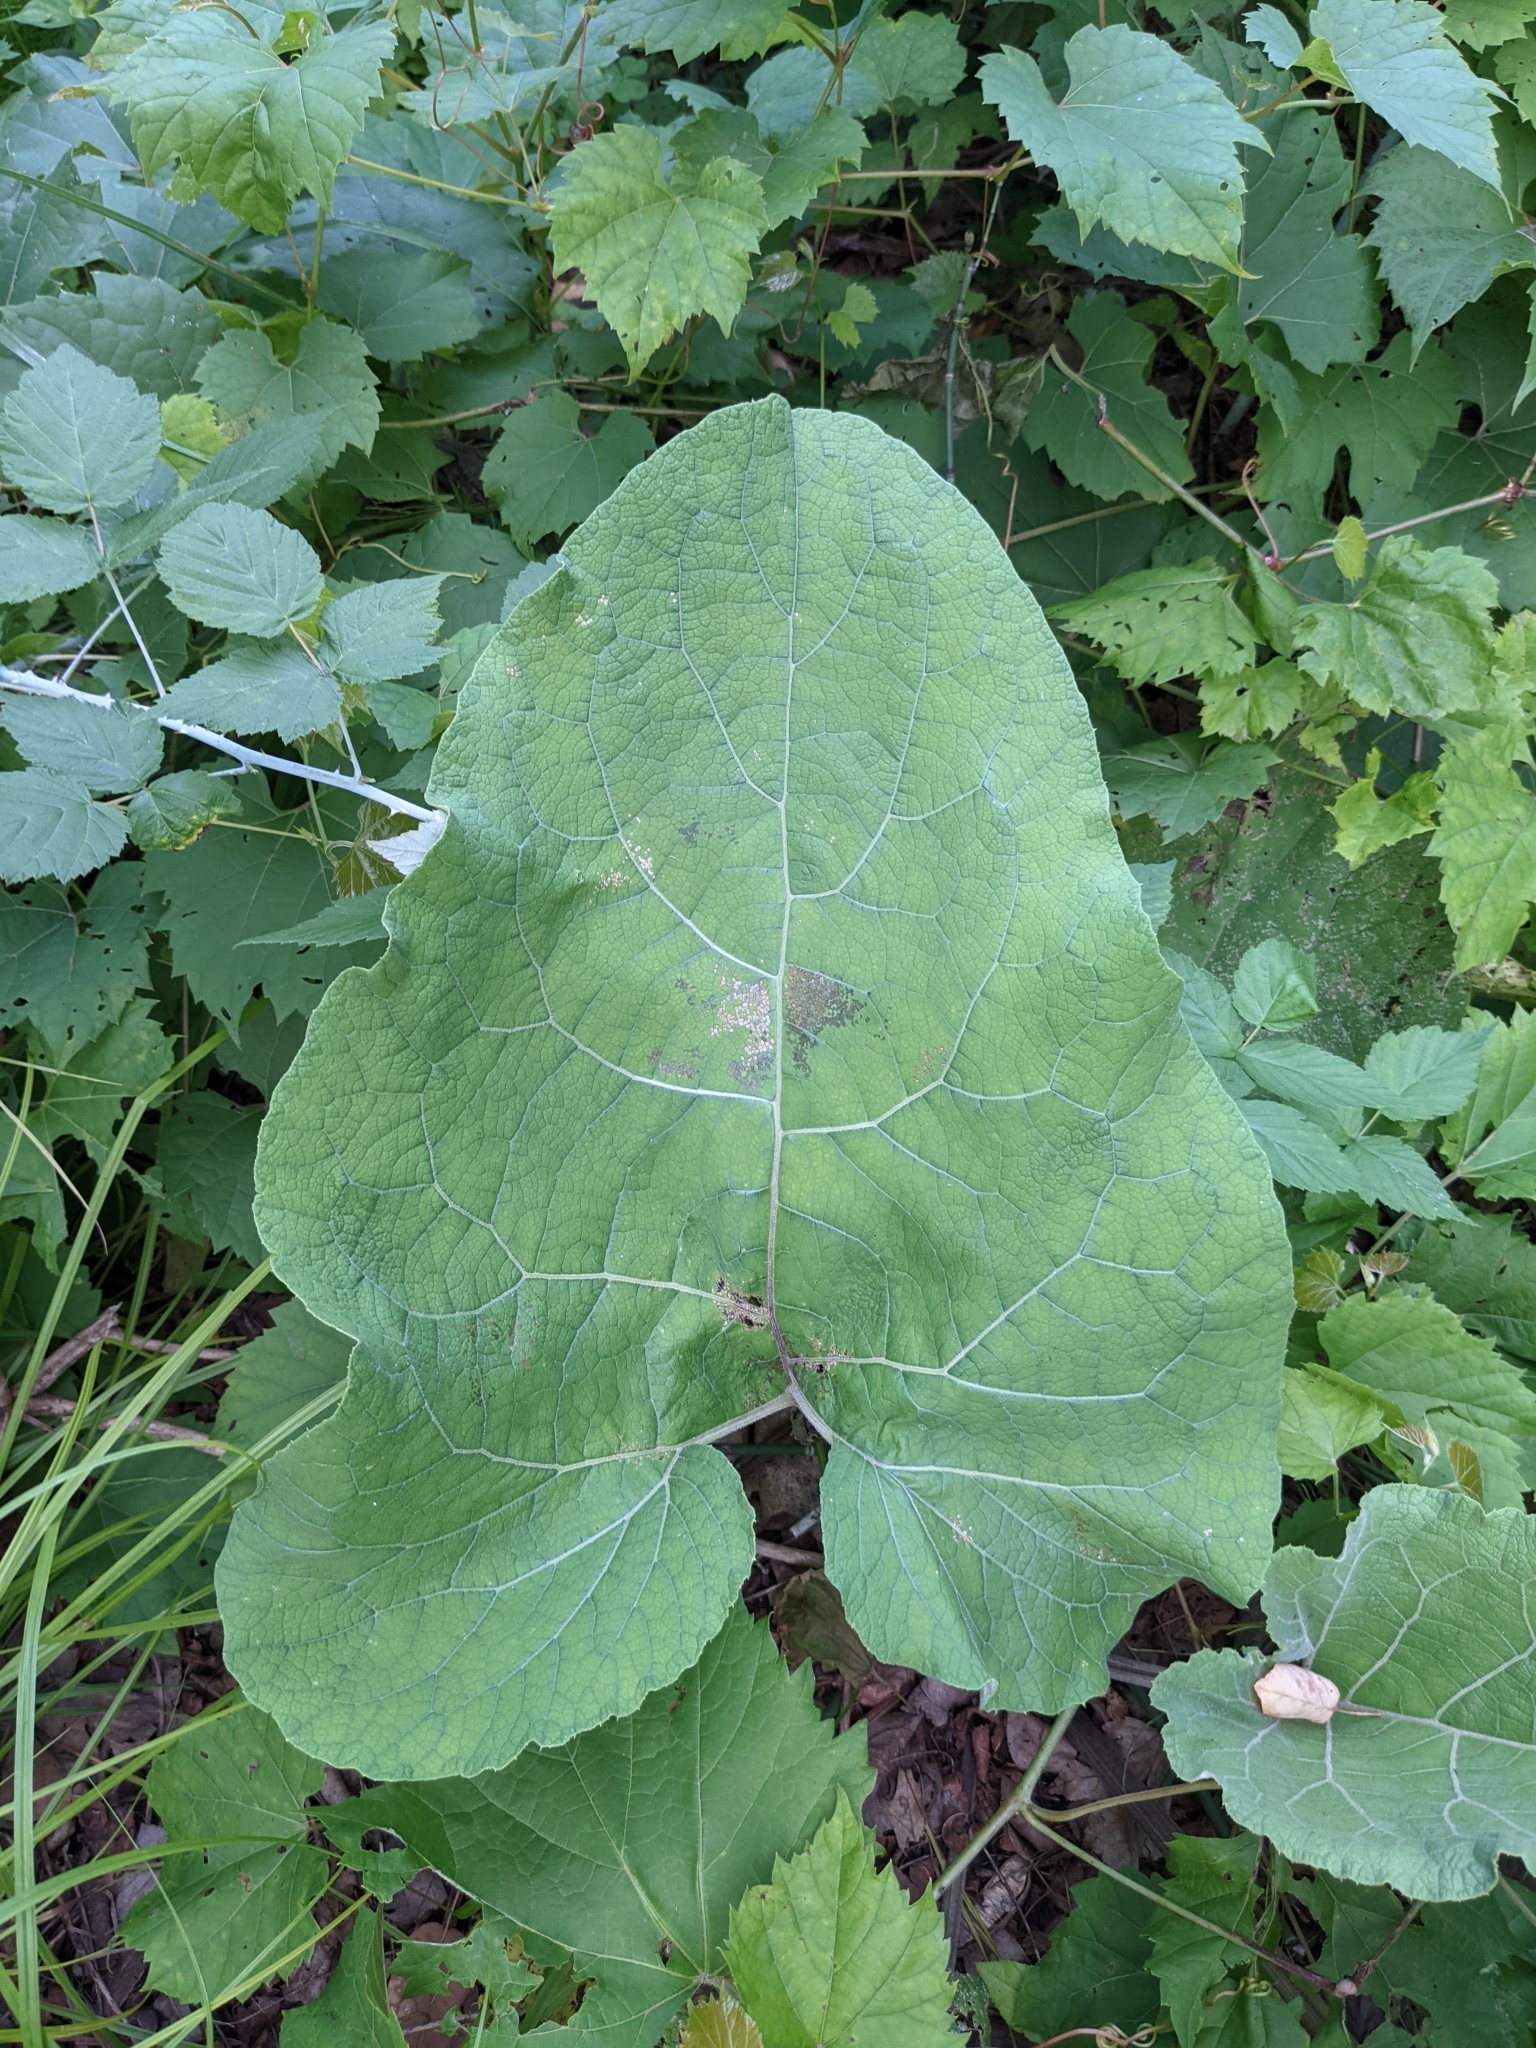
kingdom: Plantae
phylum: Tracheophyta
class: Magnoliopsida
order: Asterales
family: Asteraceae
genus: Arctium
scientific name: Arctium
